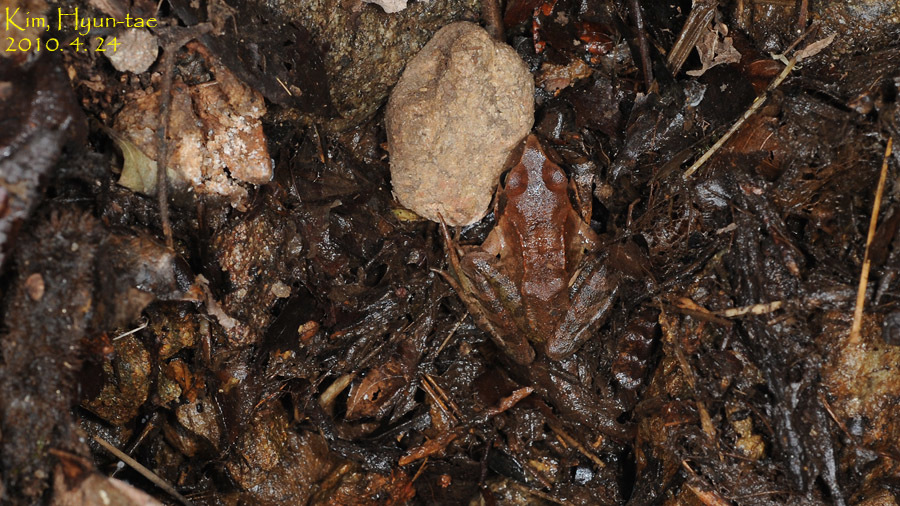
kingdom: Animalia
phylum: Chordata
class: Amphibia
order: Anura
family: Ranidae
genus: Rana
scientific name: Rana uenoi
